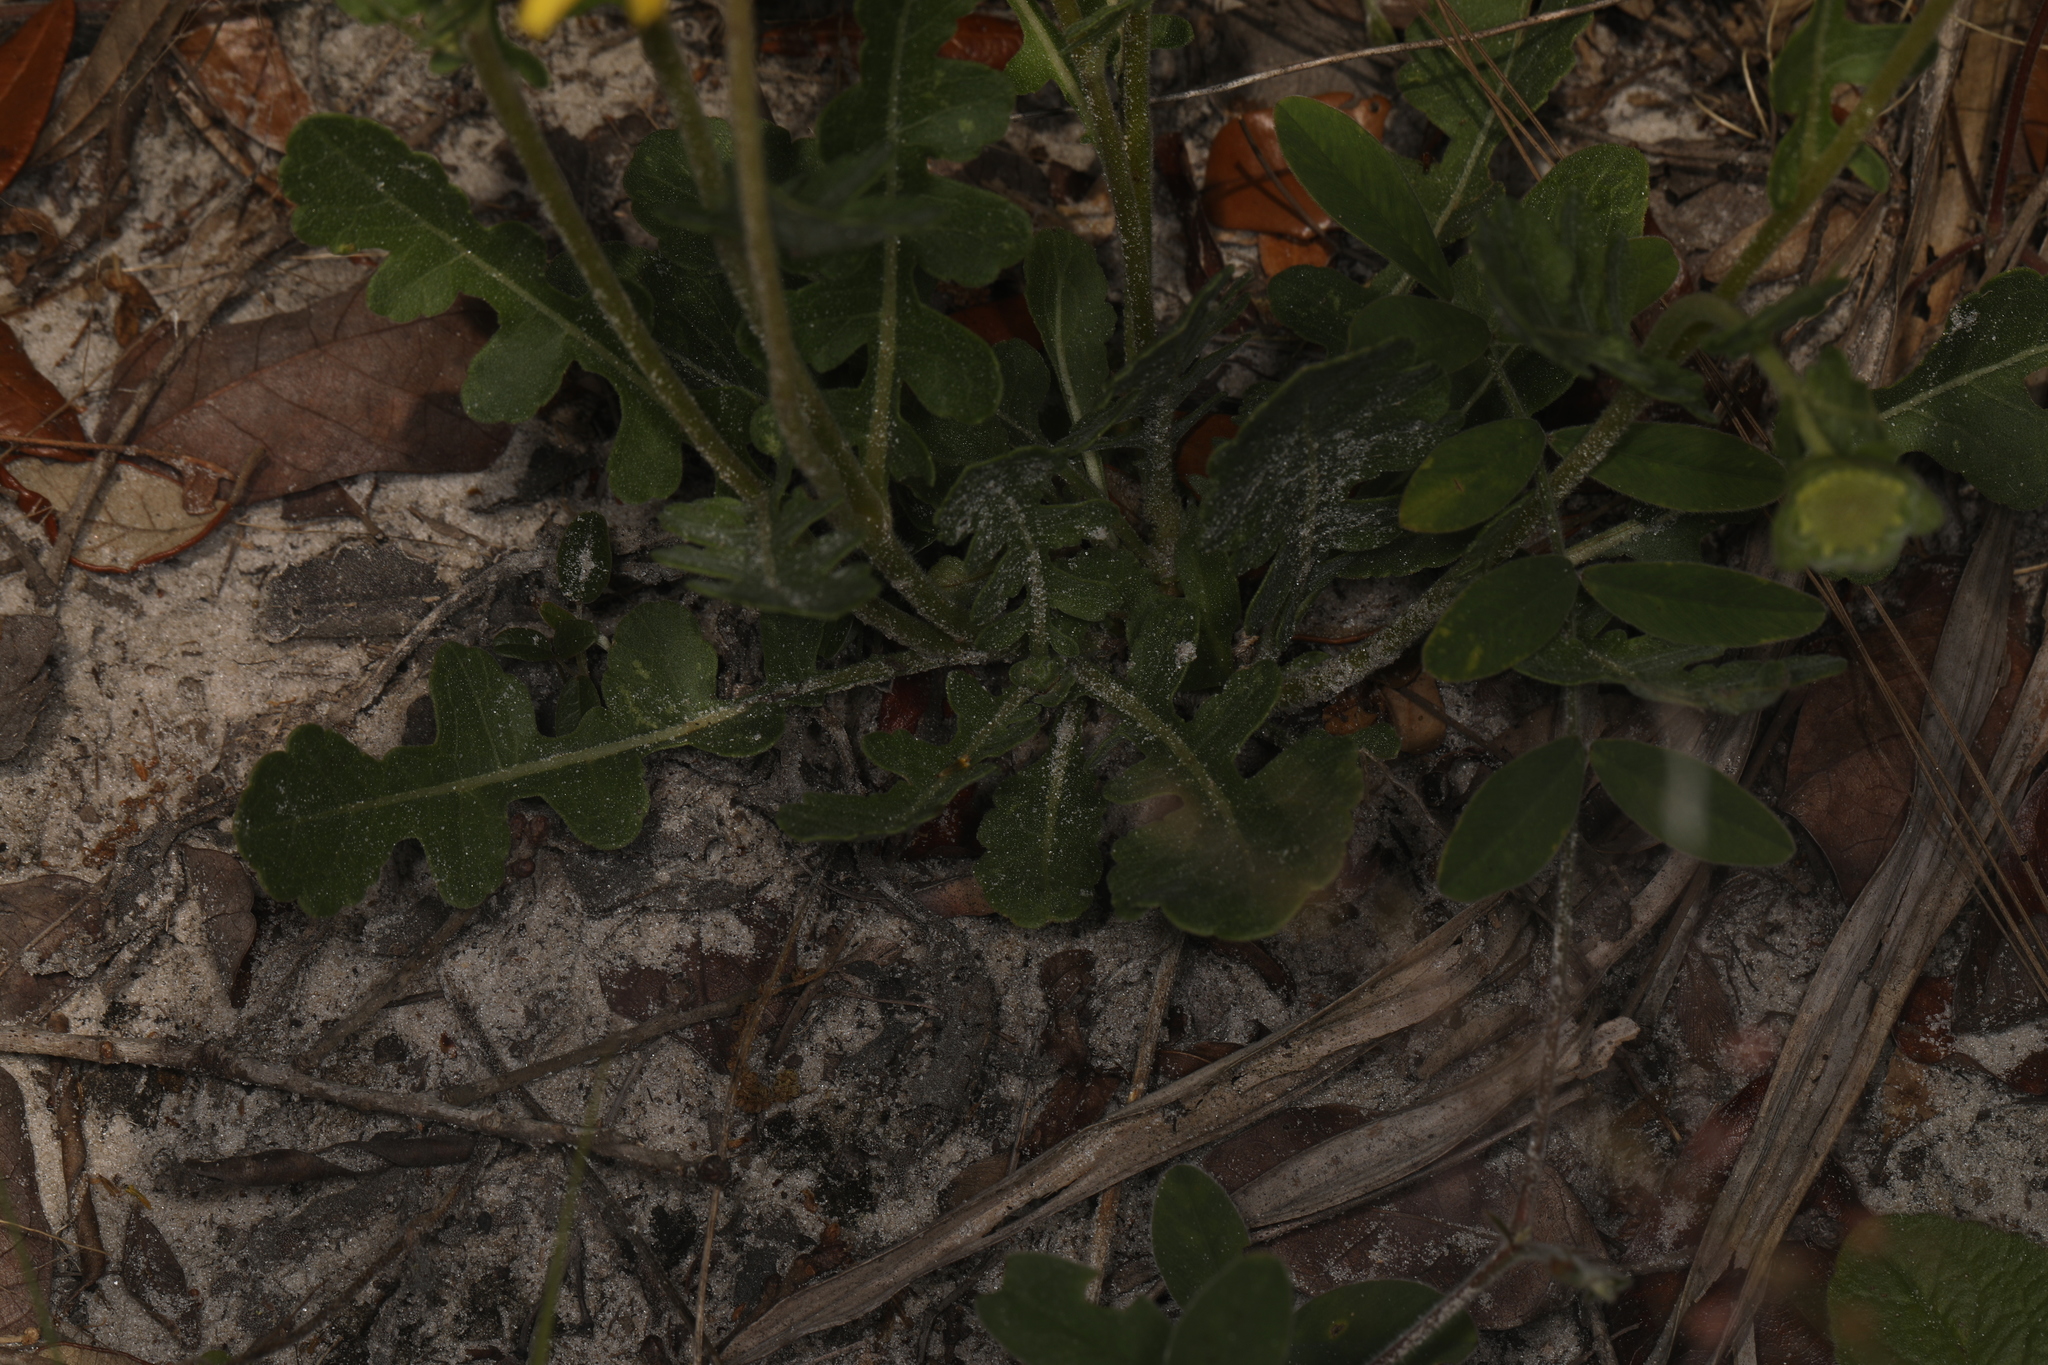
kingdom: Plantae
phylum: Tracheophyta
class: Magnoliopsida
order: Asterales
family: Asteraceae
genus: Berlandiera
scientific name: Berlandiera subacaulis
